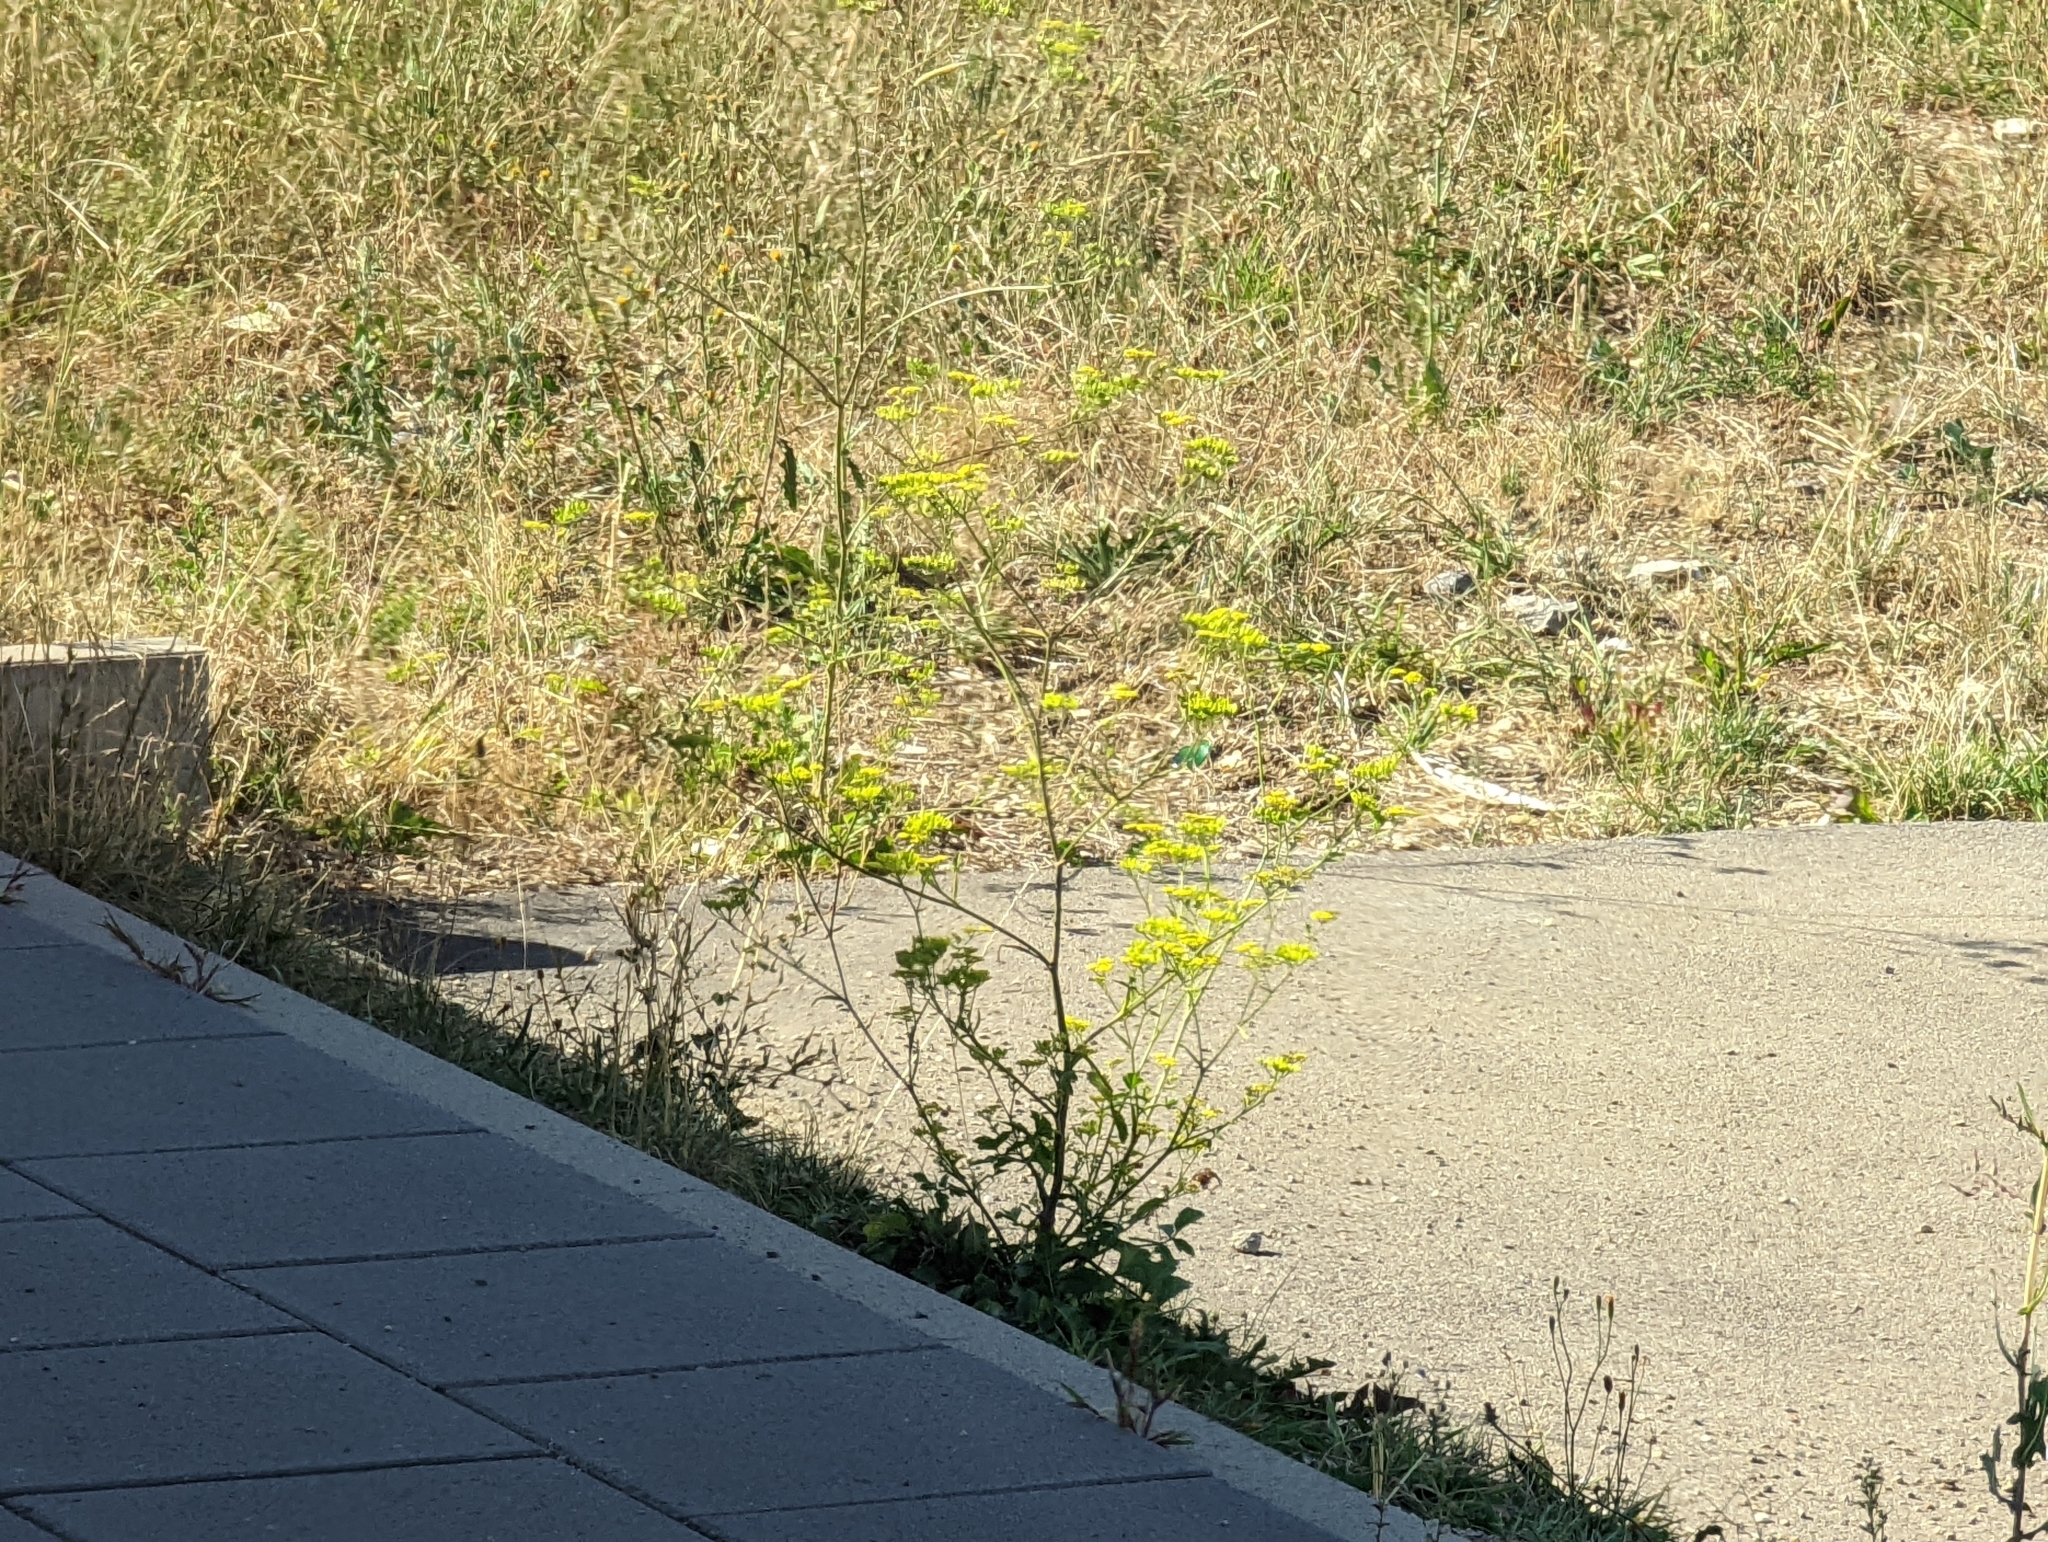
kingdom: Plantae
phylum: Tracheophyta
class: Magnoliopsida
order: Apiales
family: Apiaceae
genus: Pastinaca
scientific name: Pastinaca sativa
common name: Wild parsnip
